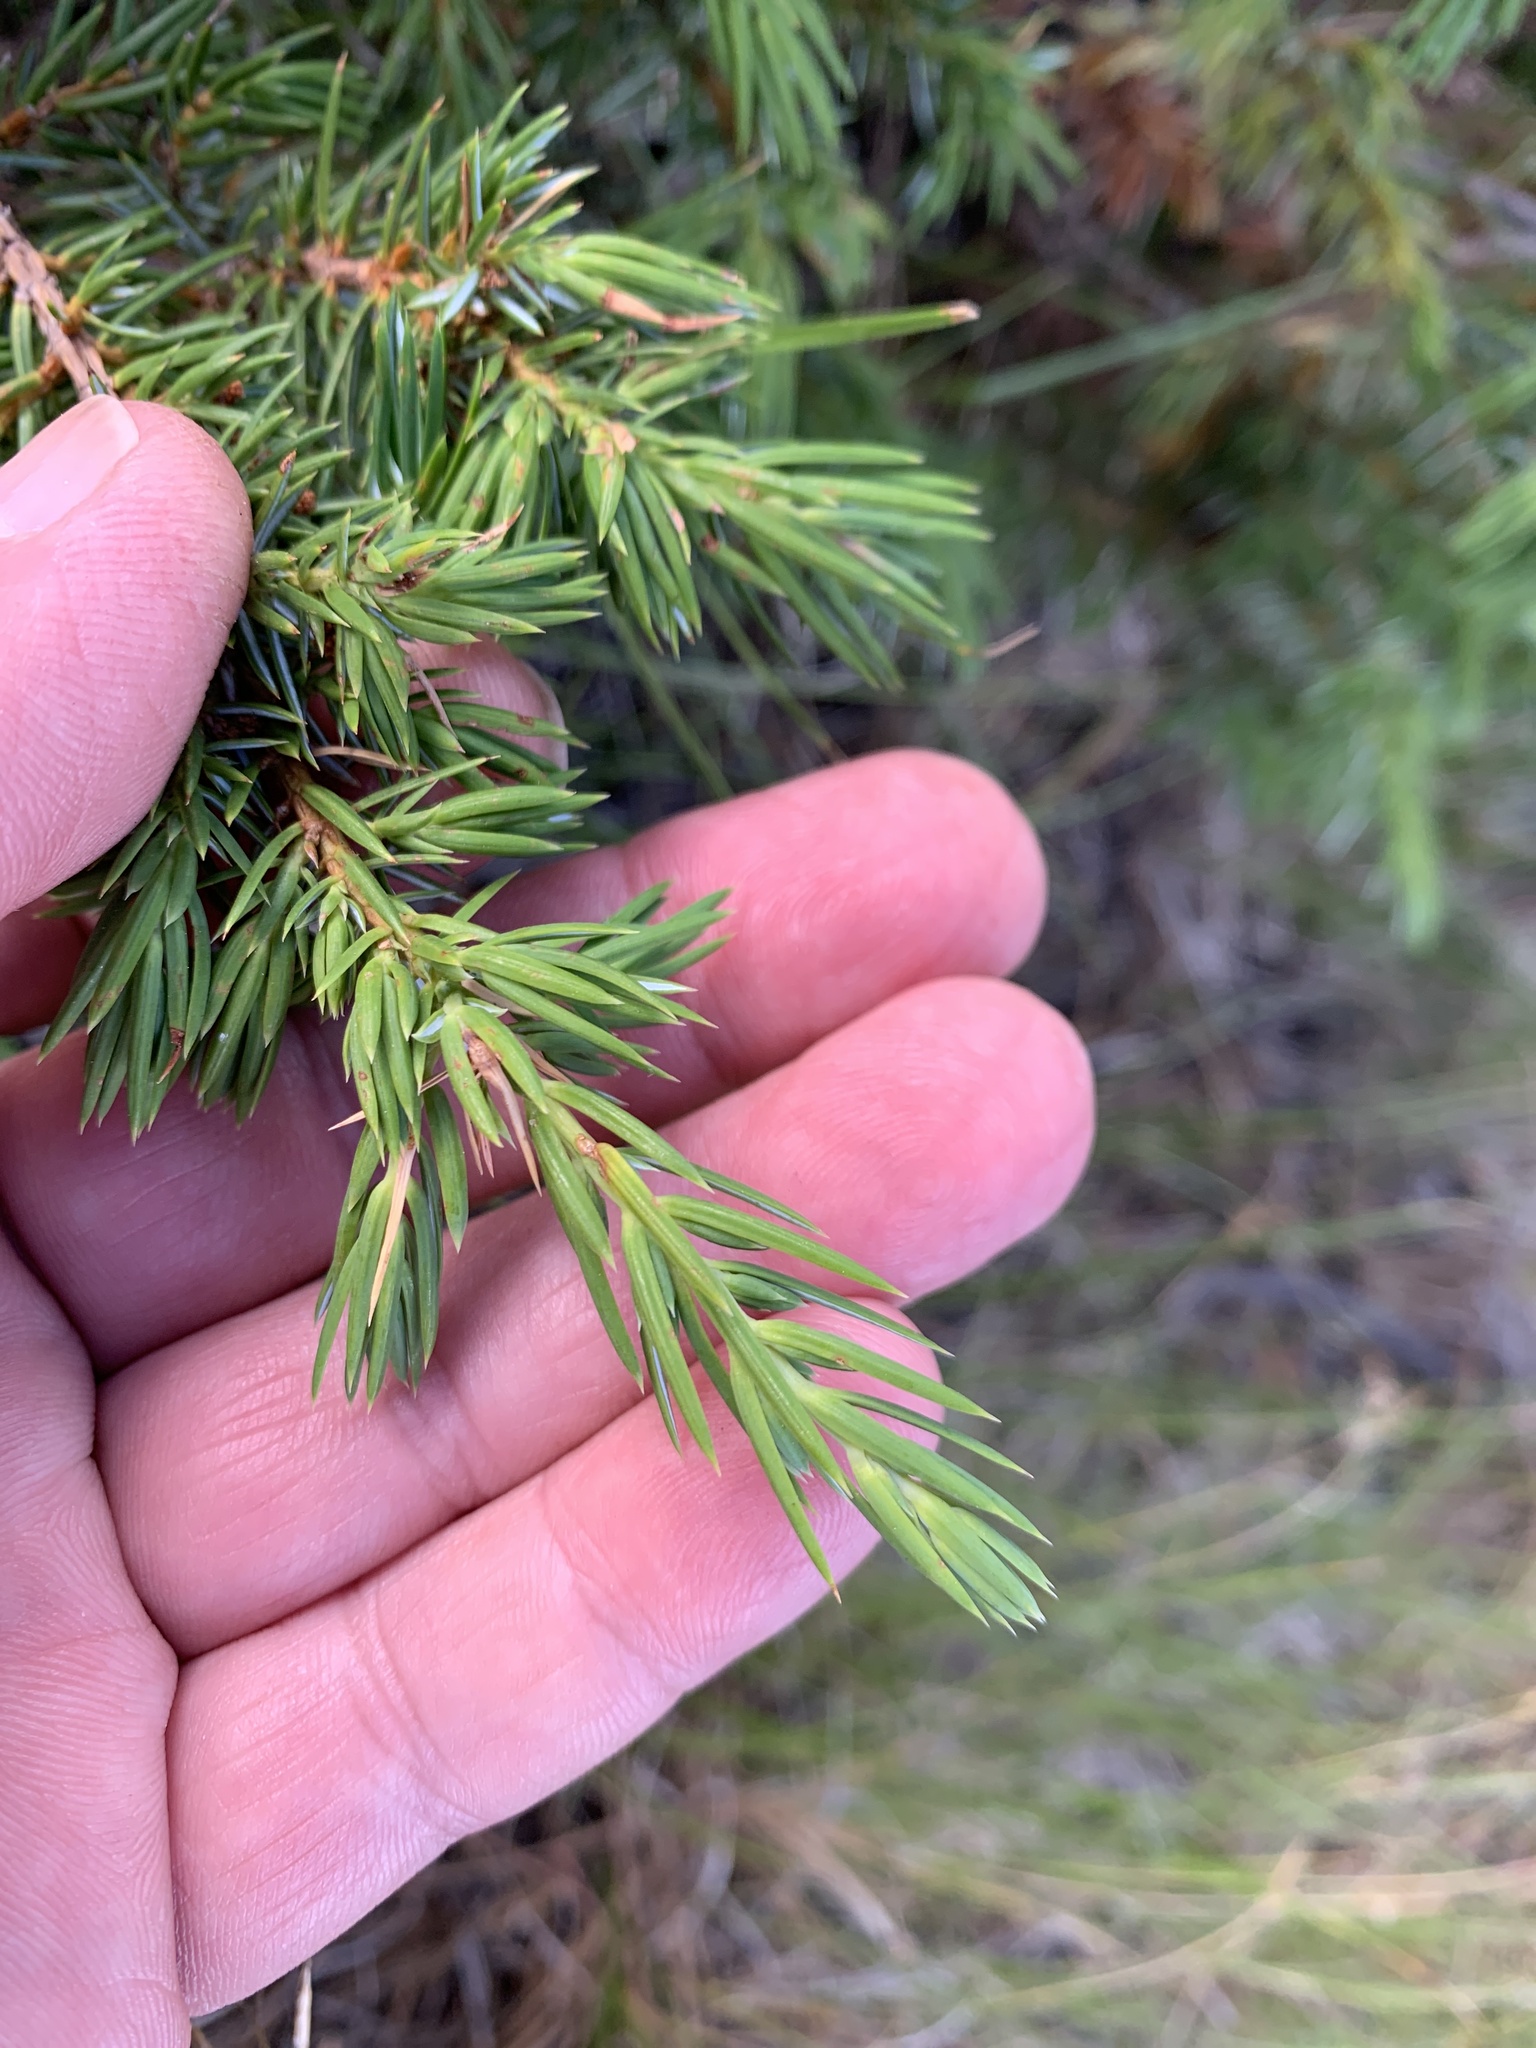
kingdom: Plantae
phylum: Tracheophyta
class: Pinopsida
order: Pinales
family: Cupressaceae
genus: Juniperus
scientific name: Juniperus communis
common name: Common juniper
